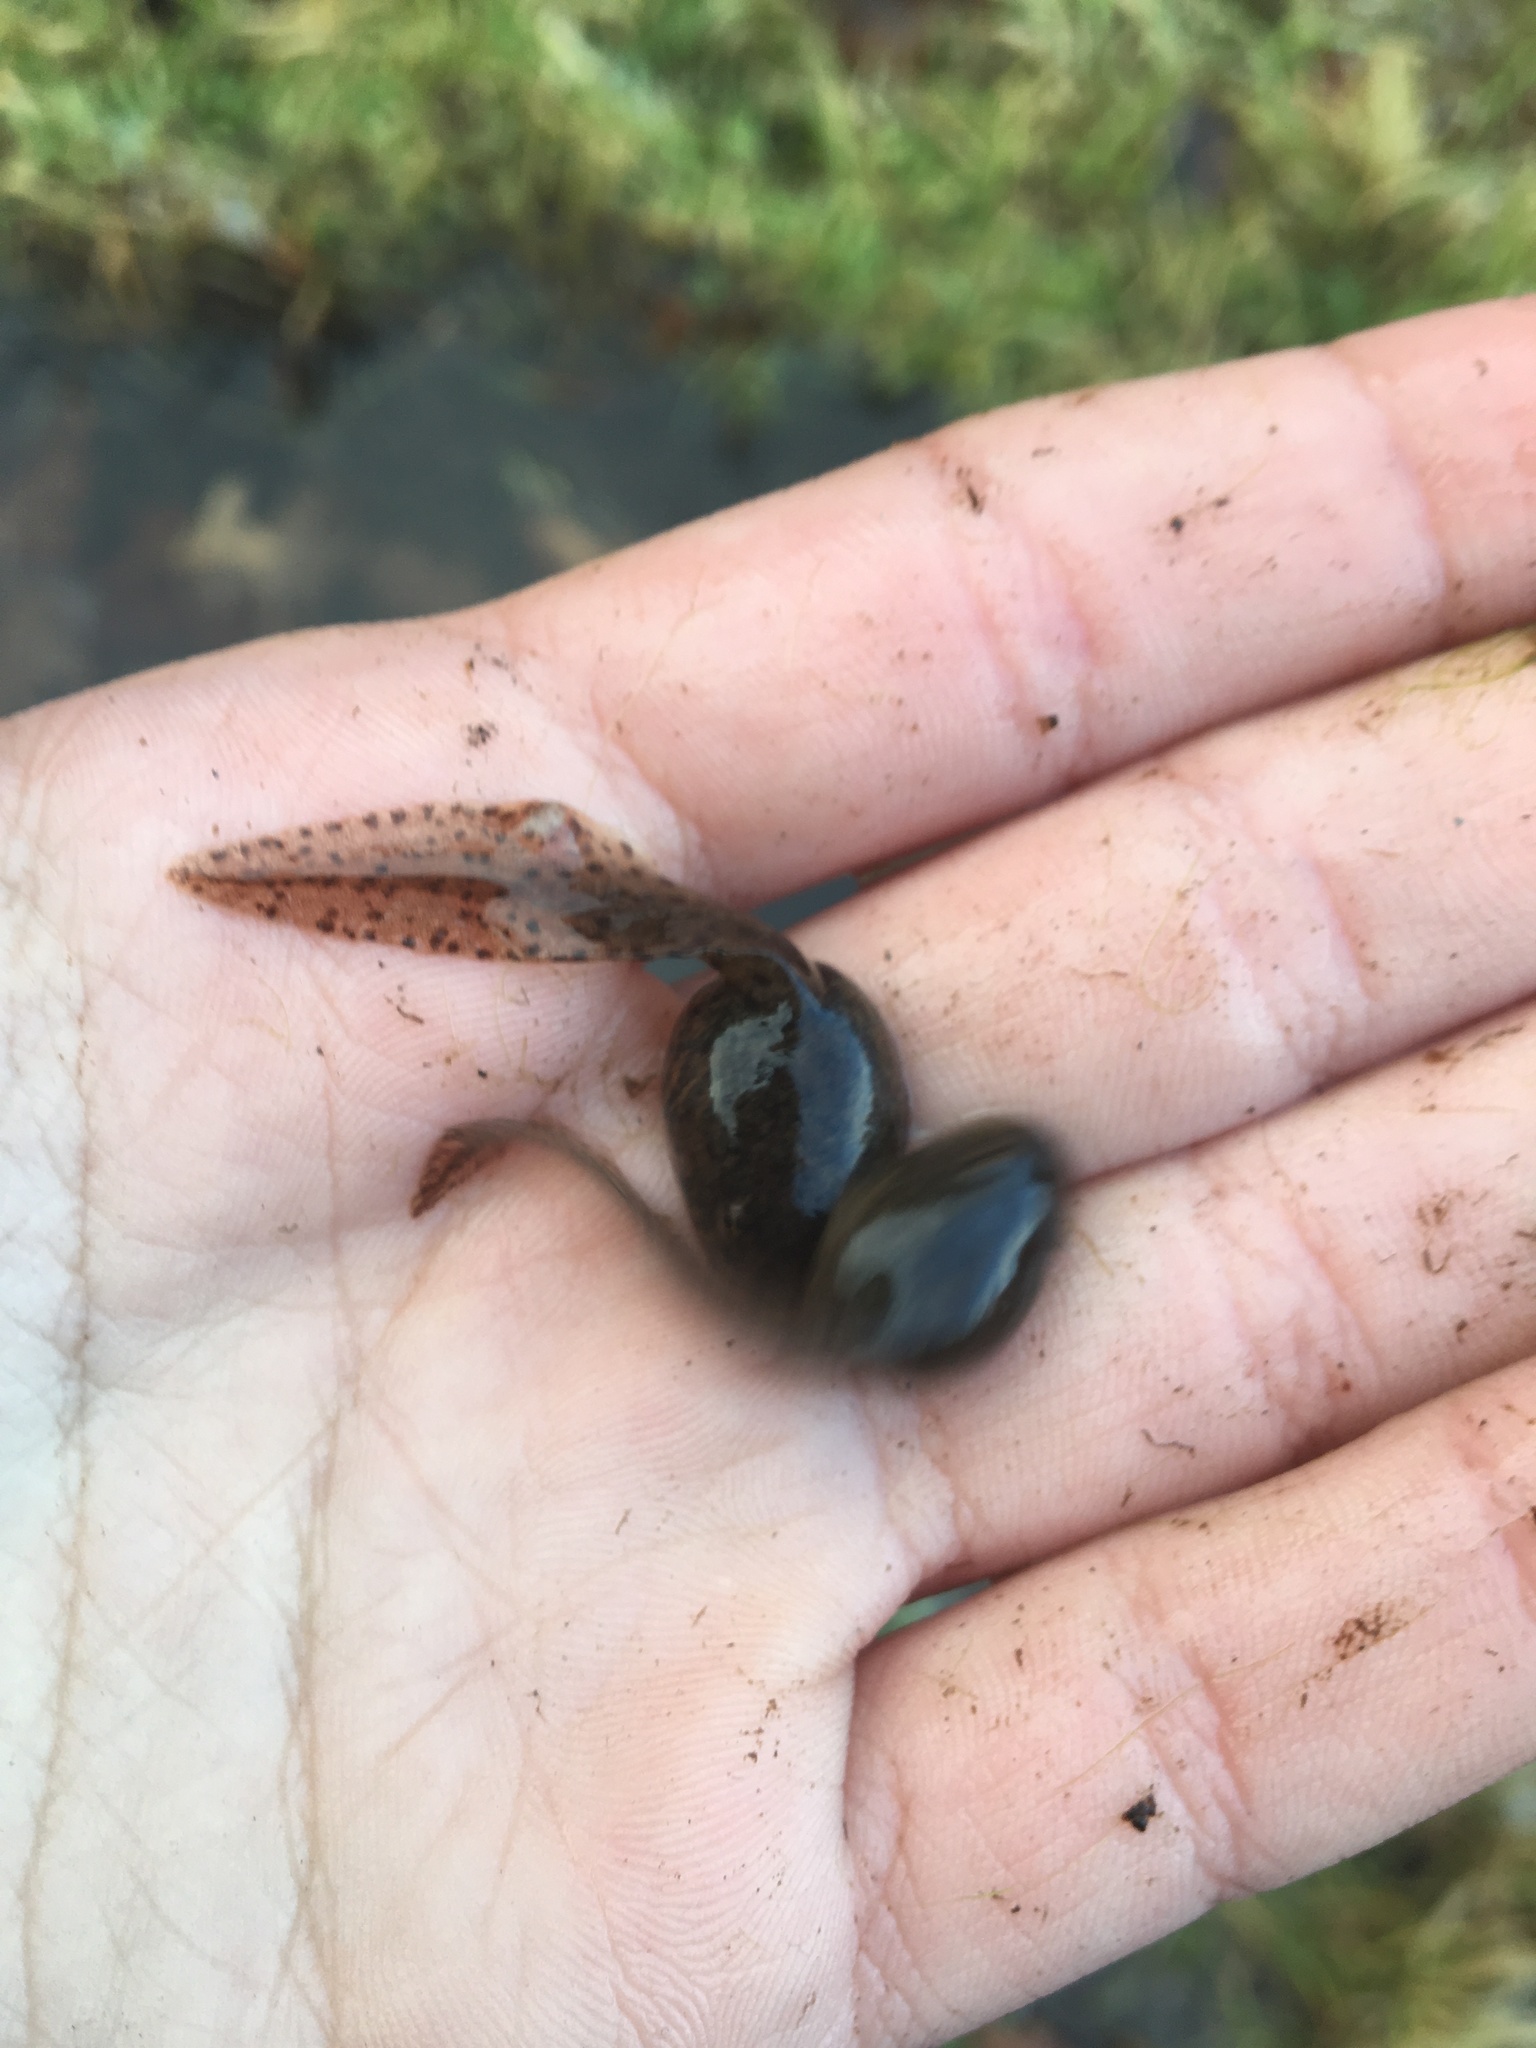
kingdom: Animalia
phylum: Chordata
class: Amphibia
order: Anura
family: Ranidae
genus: Lithobates
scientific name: Lithobates clamitans
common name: Green frog
